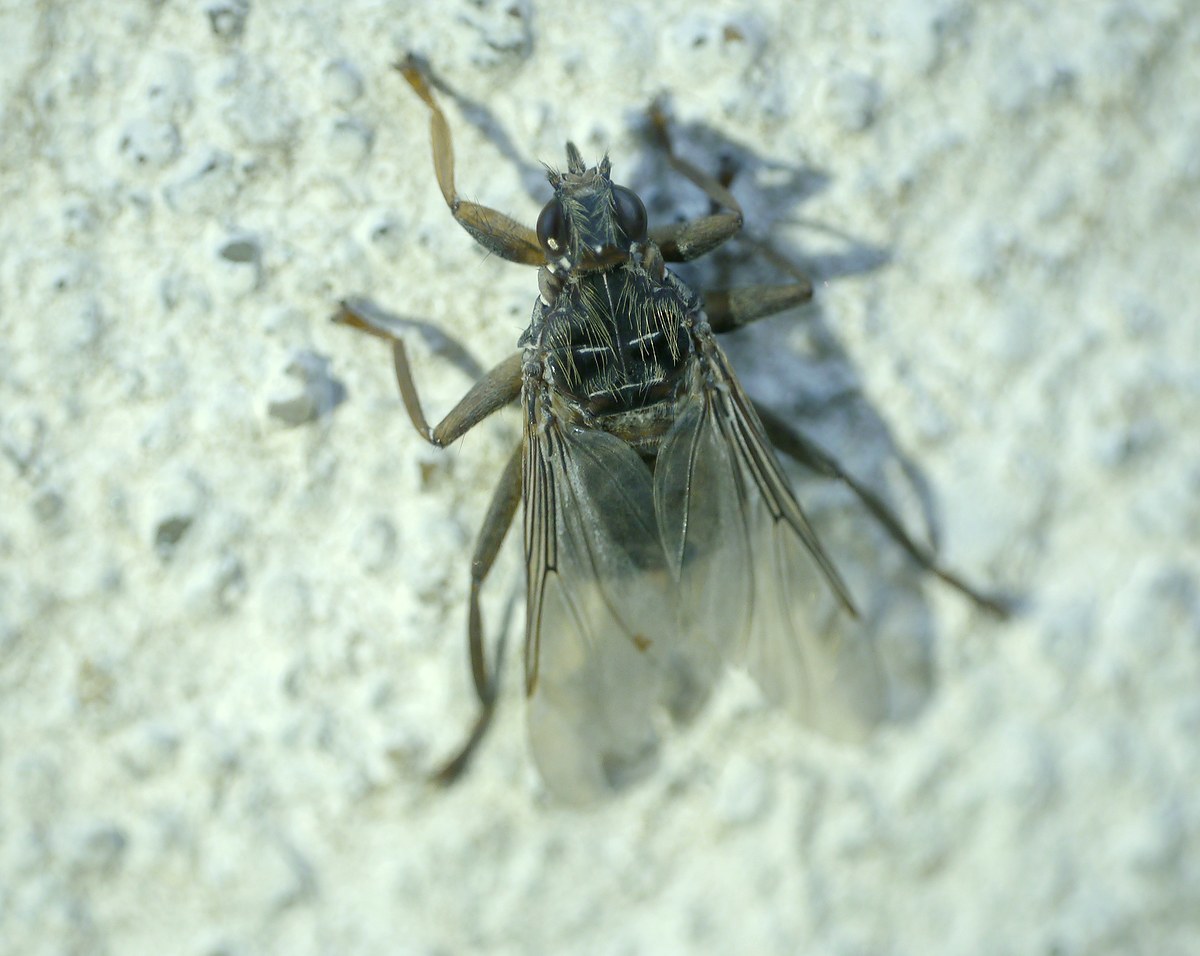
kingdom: Animalia
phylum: Arthropoda
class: Insecta
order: Diptera
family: Hippoboscidae
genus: Pseudolynchia
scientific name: Pseudolynchia canariensis
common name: Louse fly
